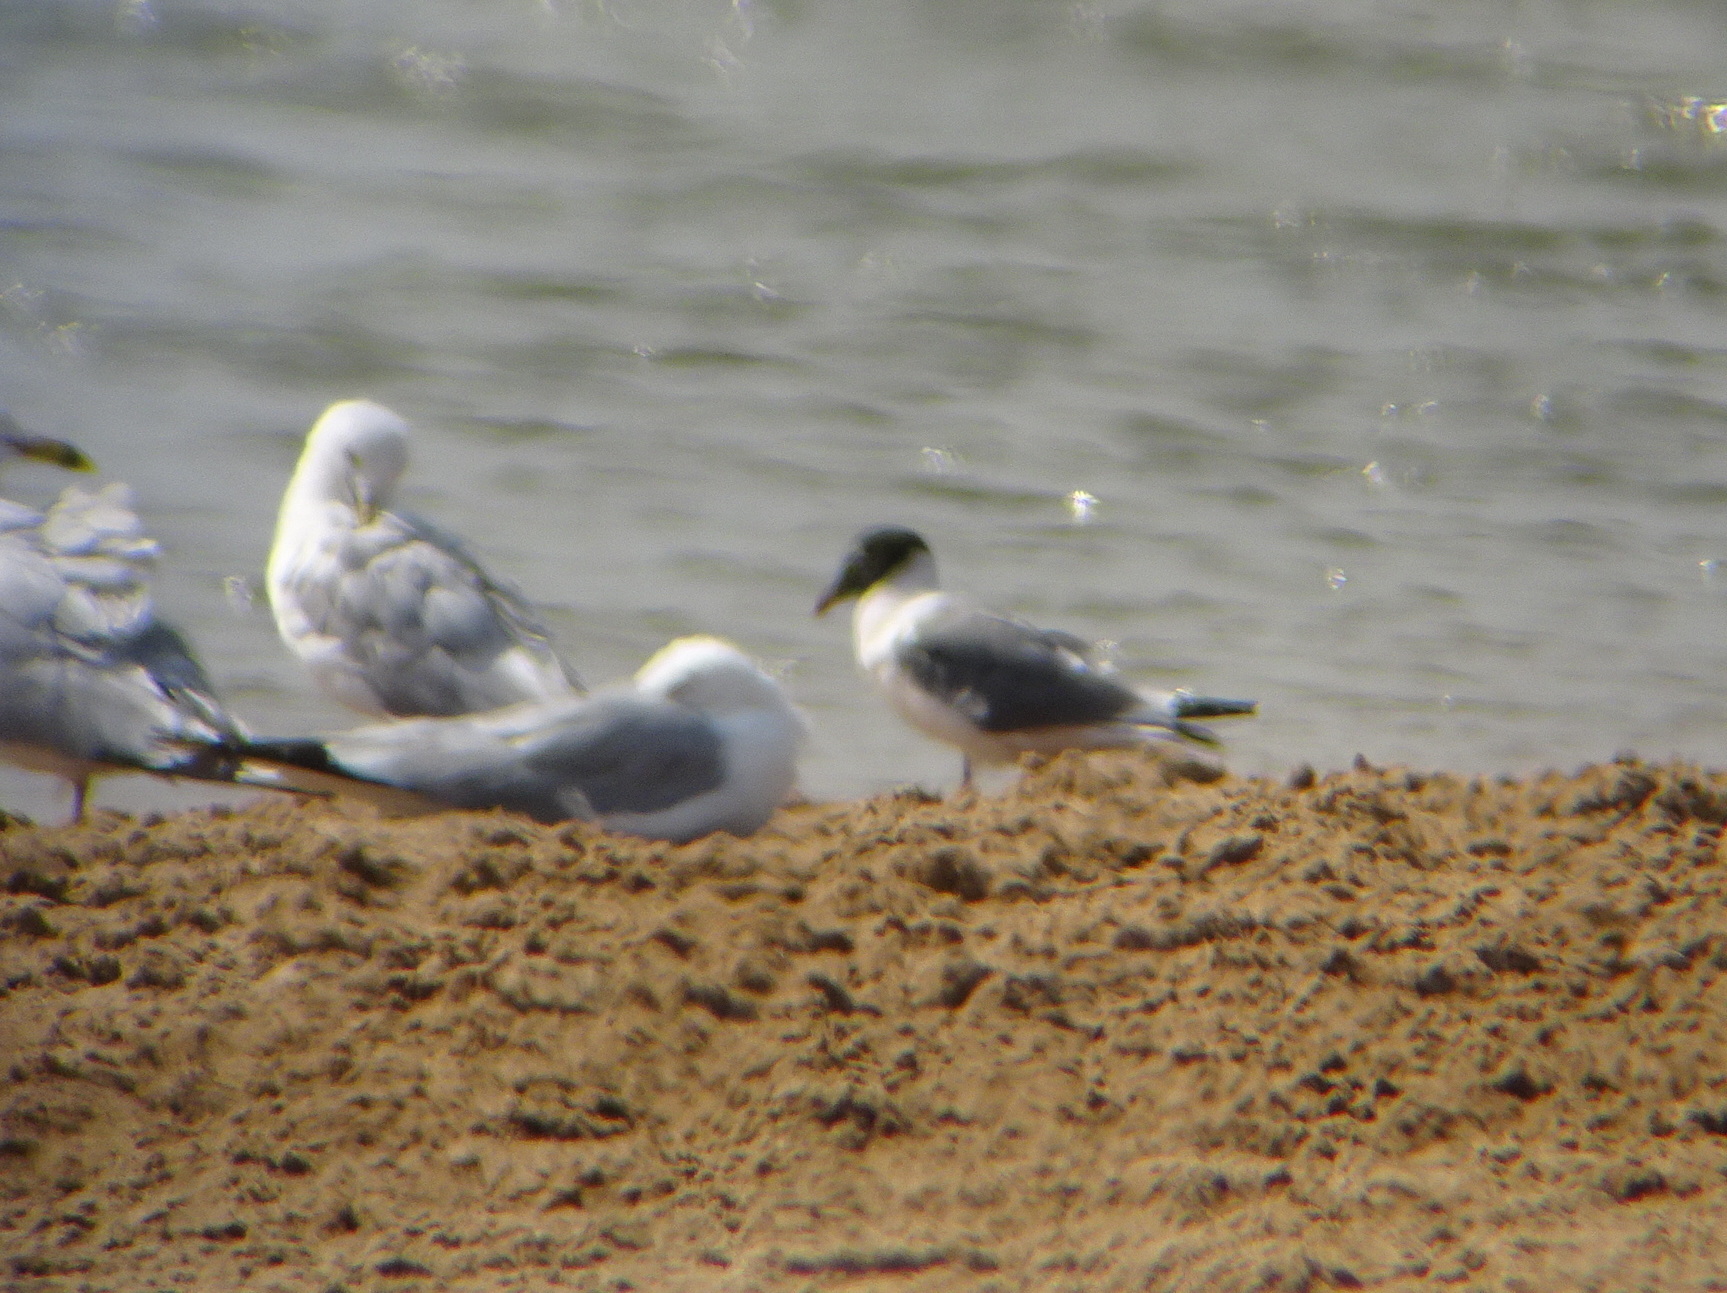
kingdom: Animalia
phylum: Chordata
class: Aves
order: Charadriiformes
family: Laridae
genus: Leucophaeus
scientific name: Leucophaeus pipixcan
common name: Franklin's gull
